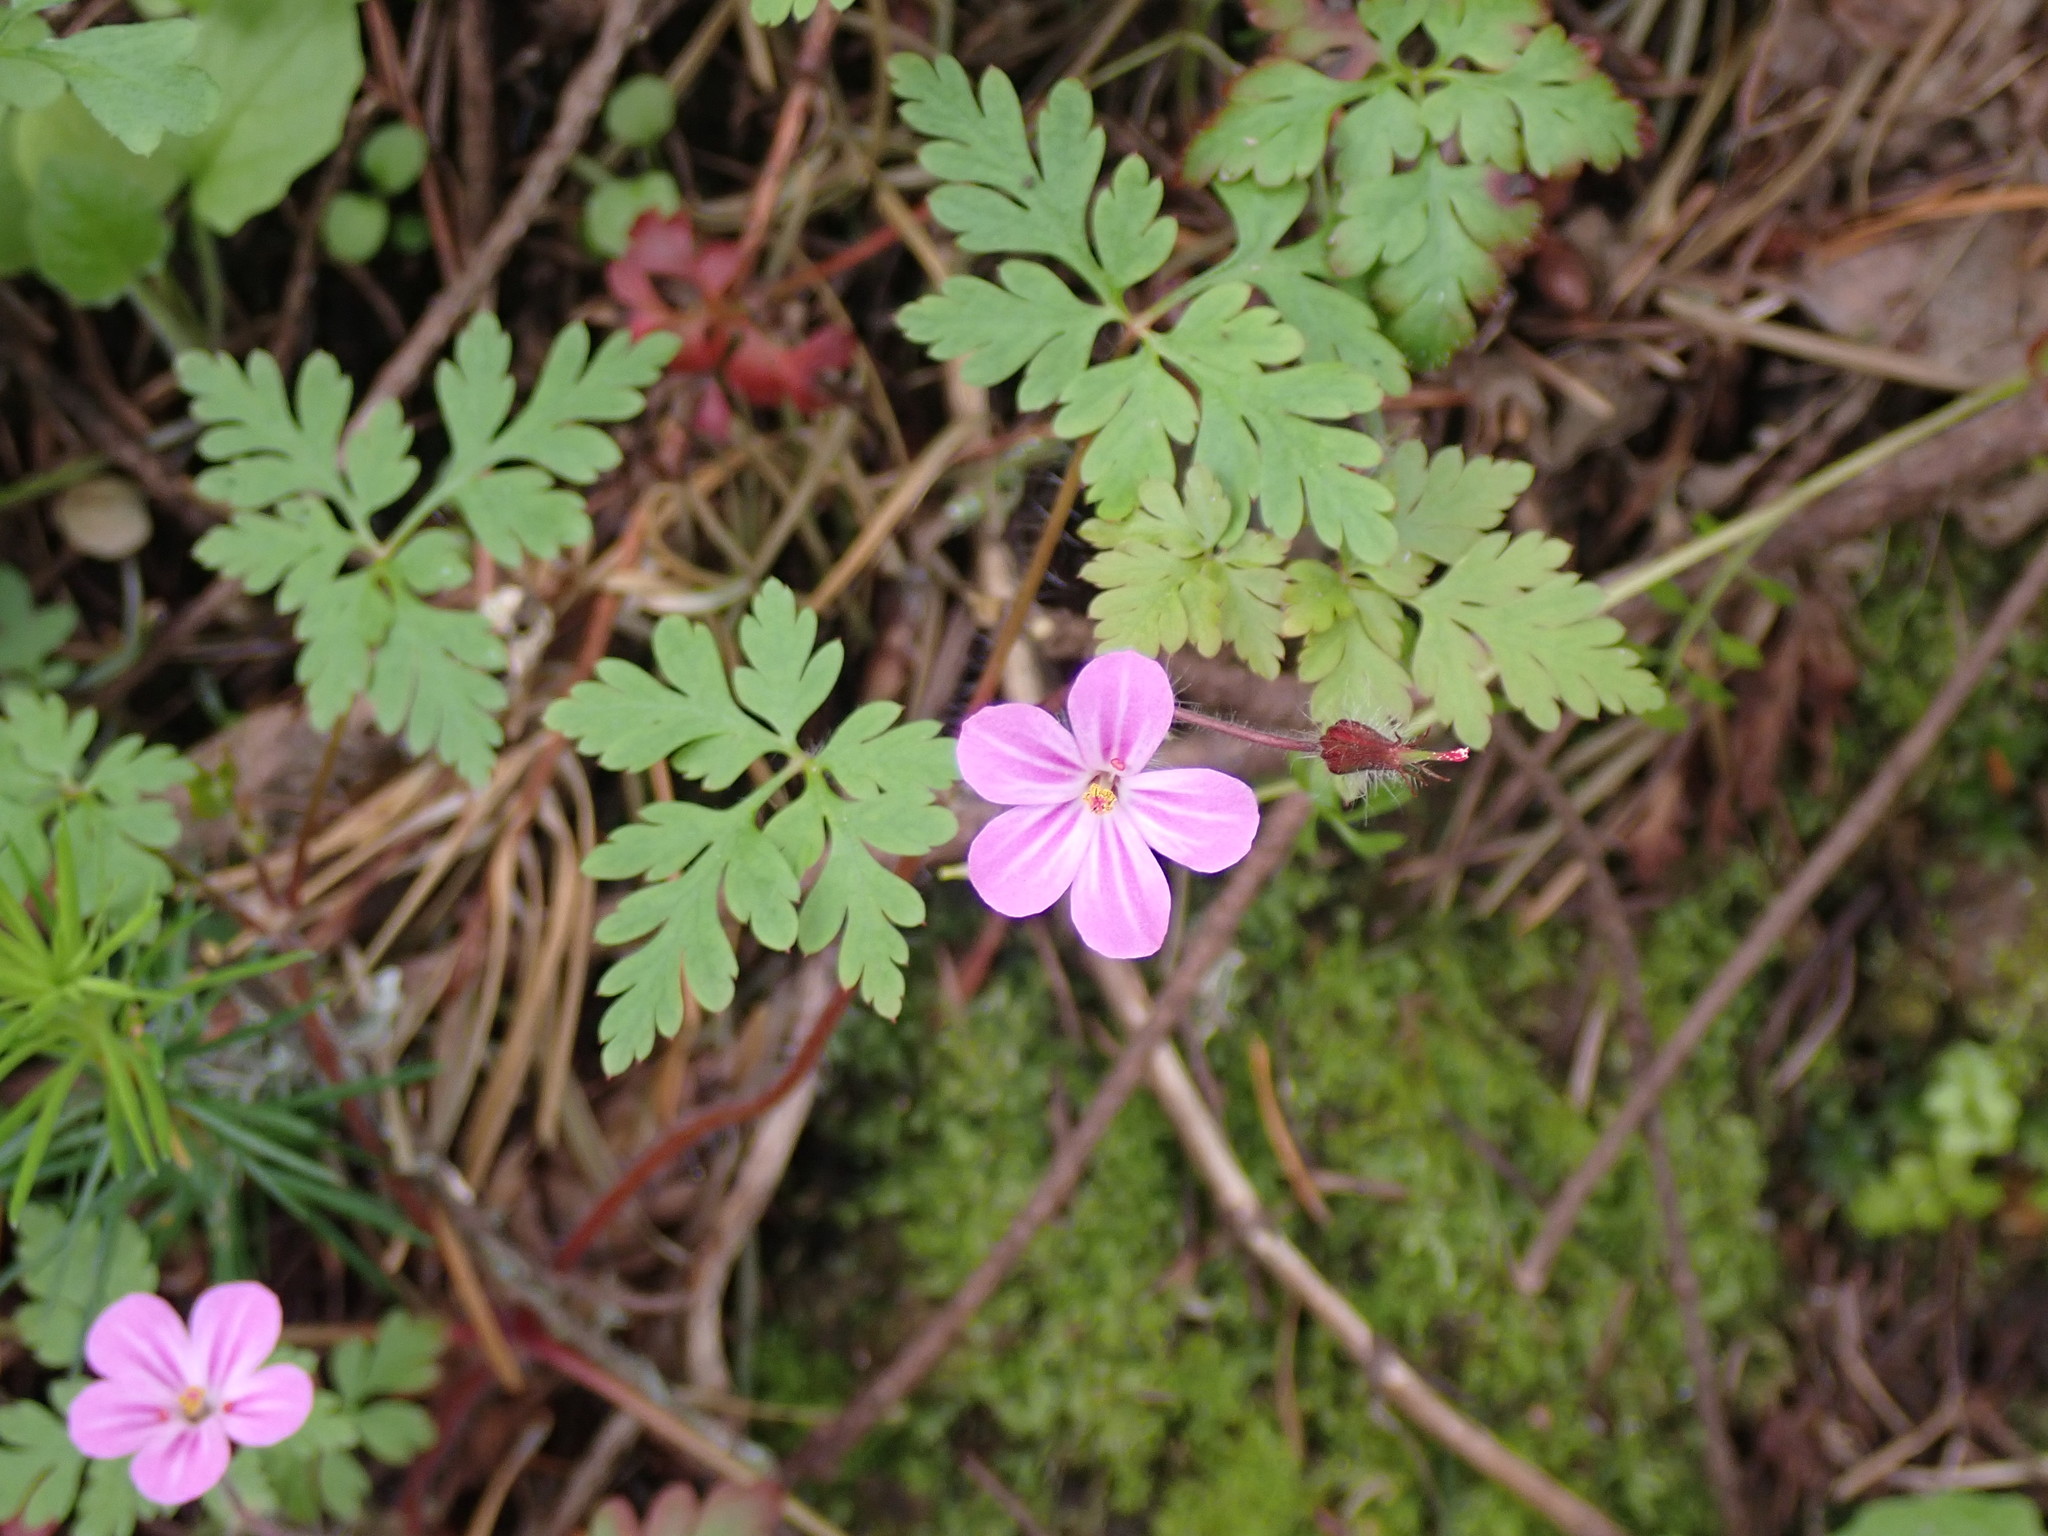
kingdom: Plantae
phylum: Tracheophyta
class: Magnoliopsida
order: Geraniales
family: Geraniaceae
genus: Geranium
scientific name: Geranium robertianum
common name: Herb-robert
